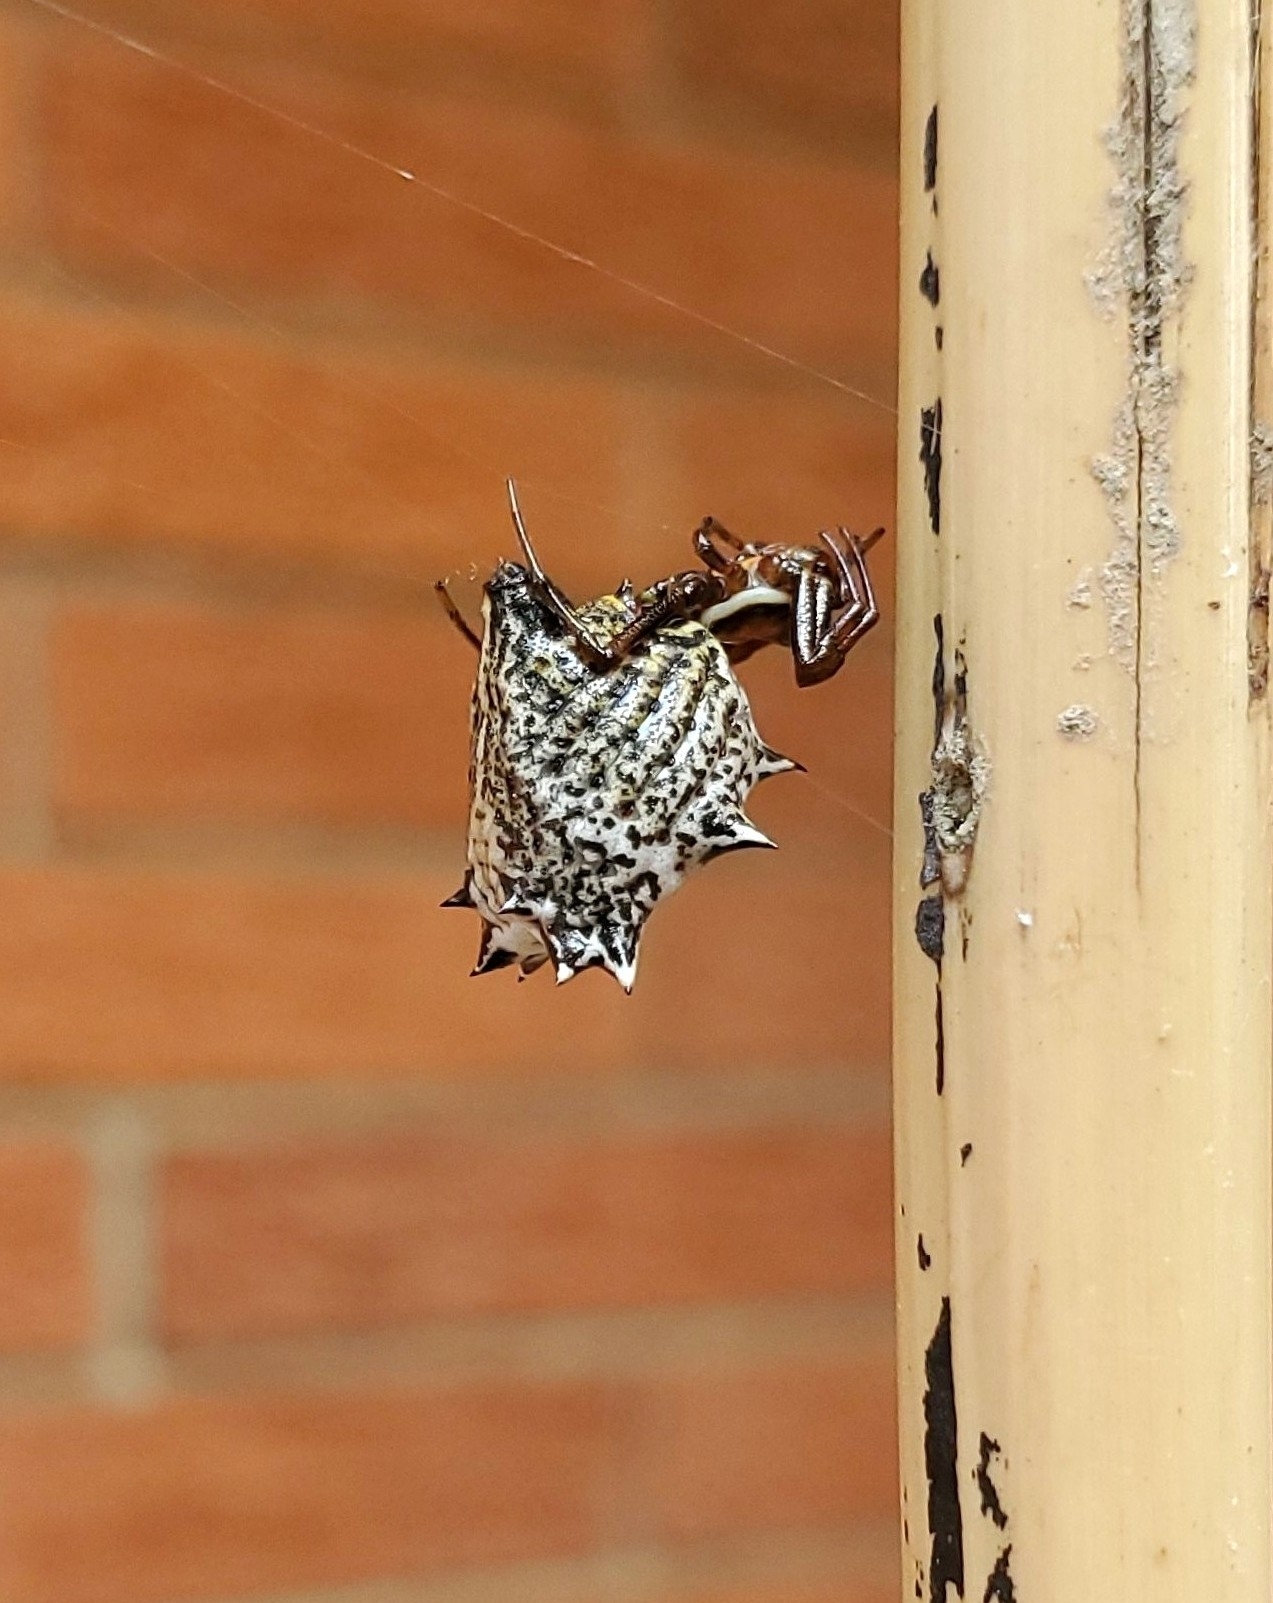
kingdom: Animalia
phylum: Arthropoda
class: Arachnida
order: Araneae
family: Araneidae
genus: Micrathena
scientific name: Micrathena gracilis
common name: Orb weavers
